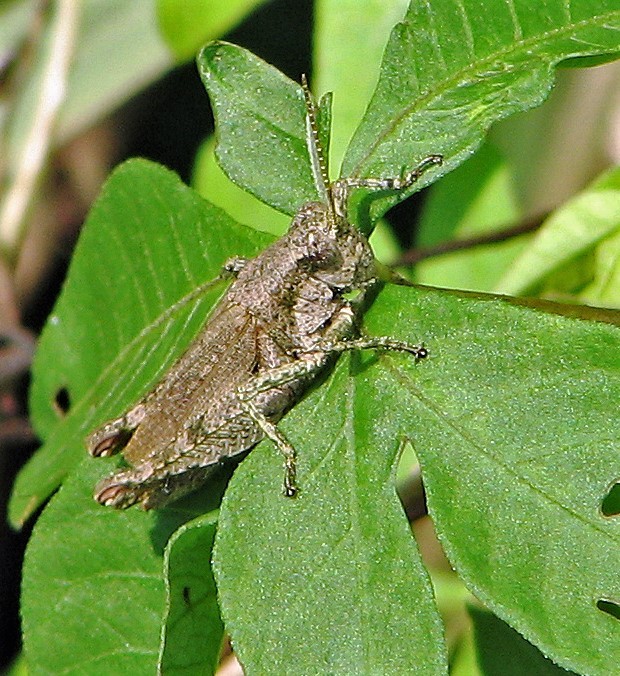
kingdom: Animalia
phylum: Arthropoda
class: Insecta
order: Orthoptera
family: Acrididae
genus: Ronderosia
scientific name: Ronderosia bergii
